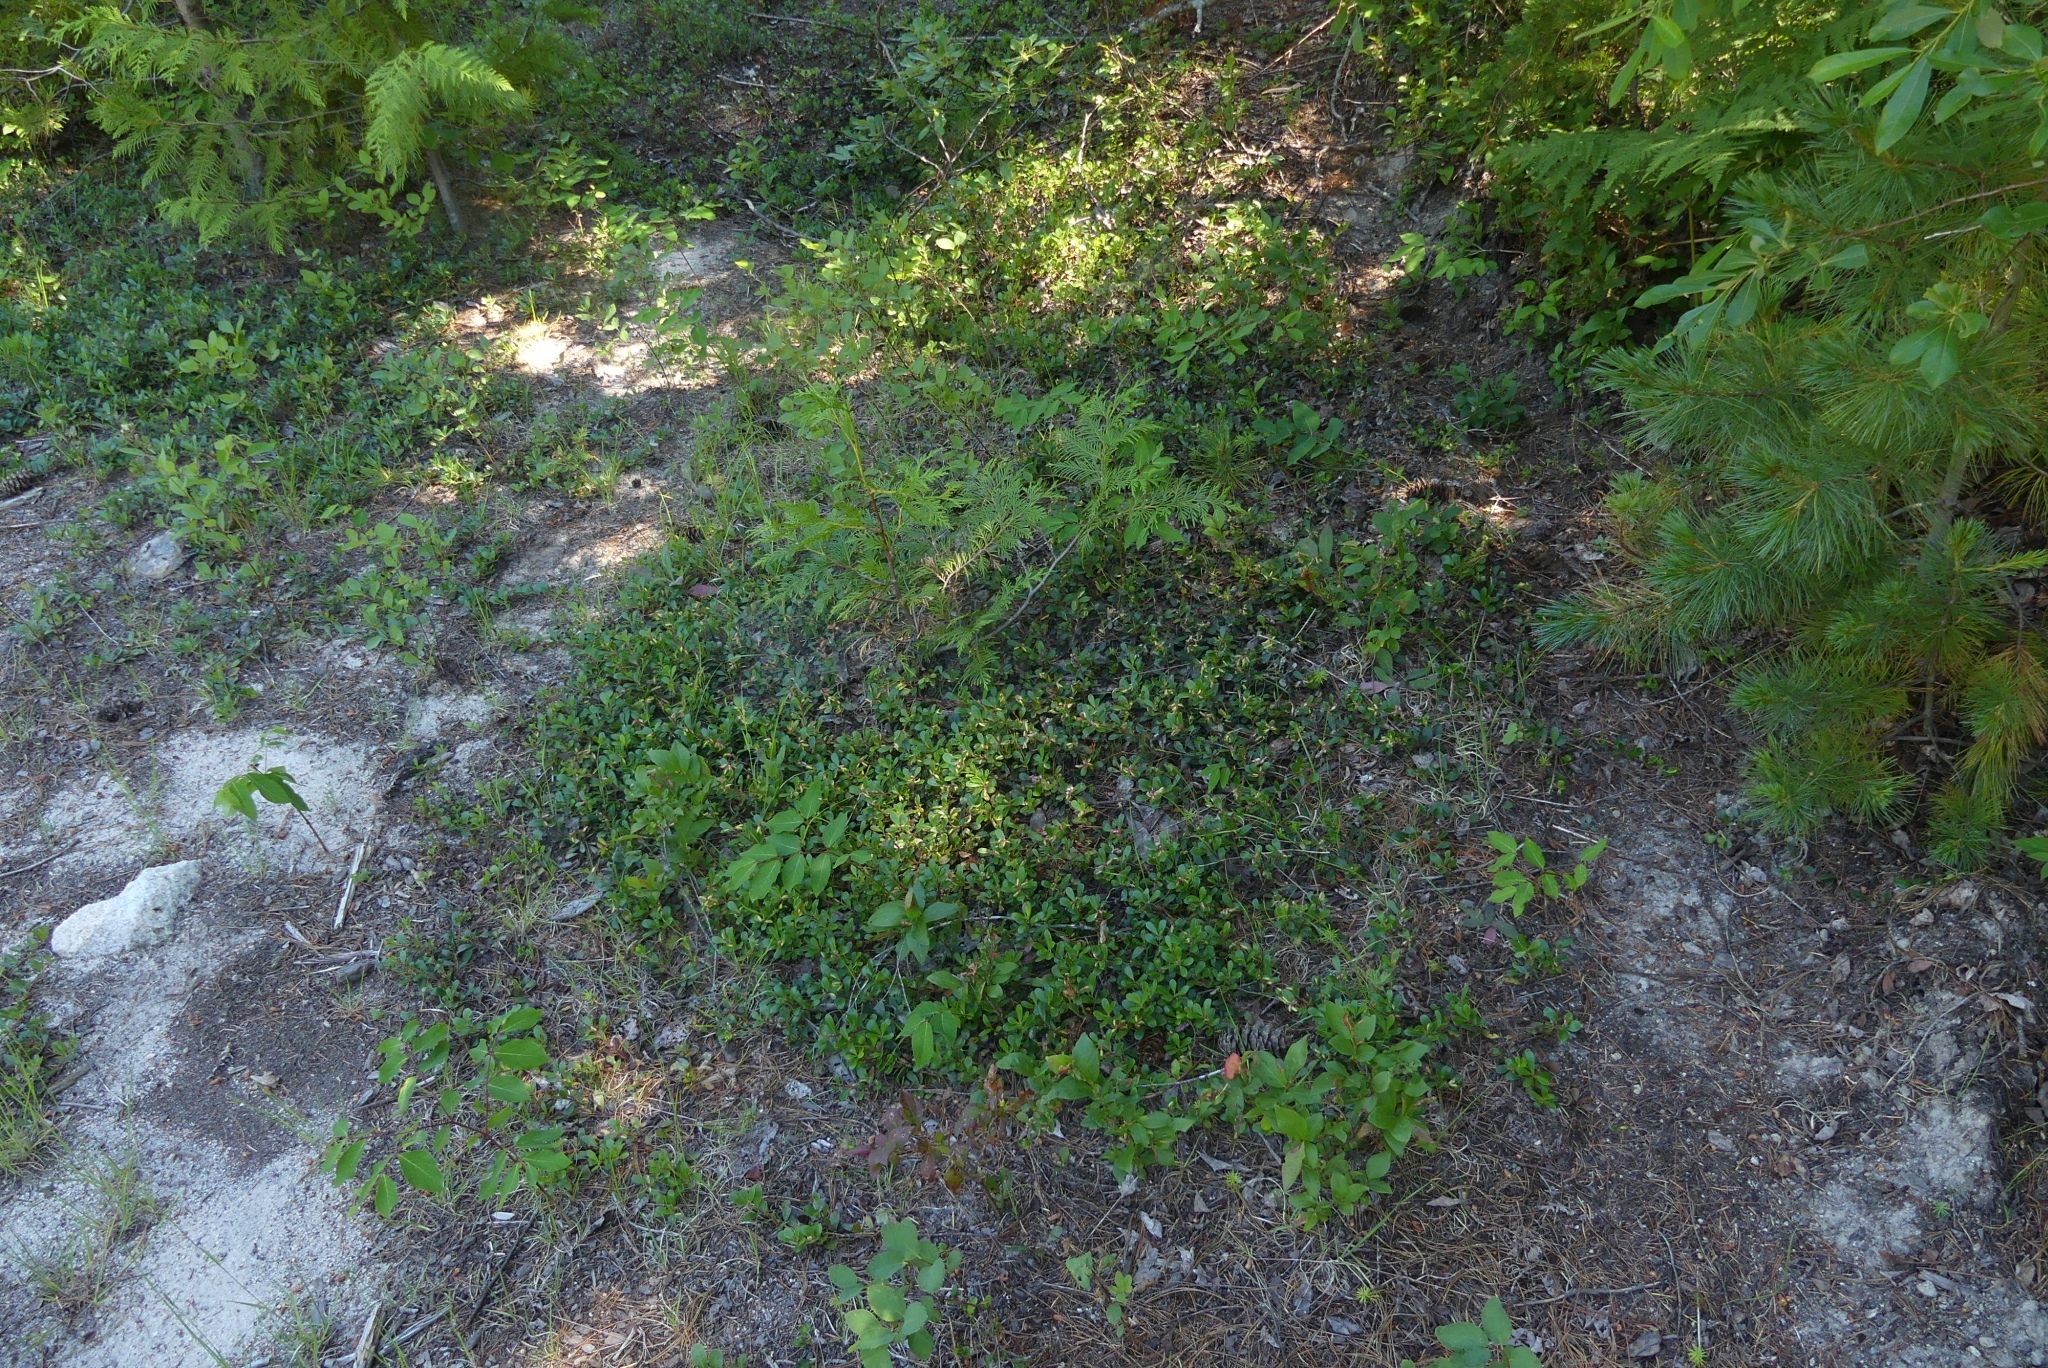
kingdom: Plantae
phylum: Tracheophyta
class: Magnoliopsida
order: Ericales
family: Ericaceae
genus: Arctostaphylos
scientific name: Arctostaphylos uva-ursi
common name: Bearberry
